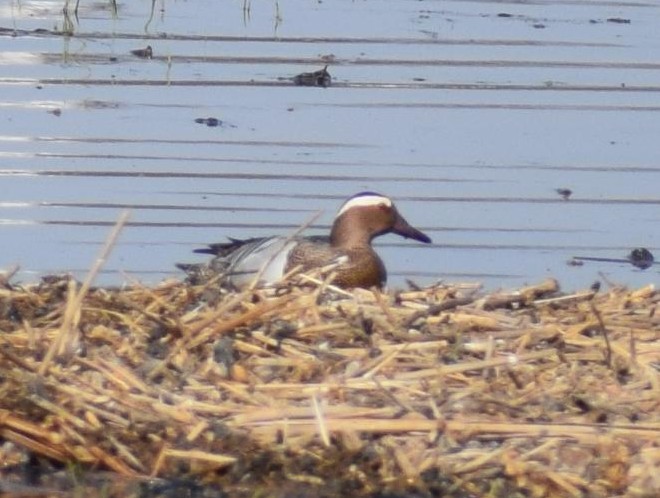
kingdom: Animalia
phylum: Chordata
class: Aves
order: Anseriformes
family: Anatidae
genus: Spatula
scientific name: Spatula querquedula
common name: Garganey
